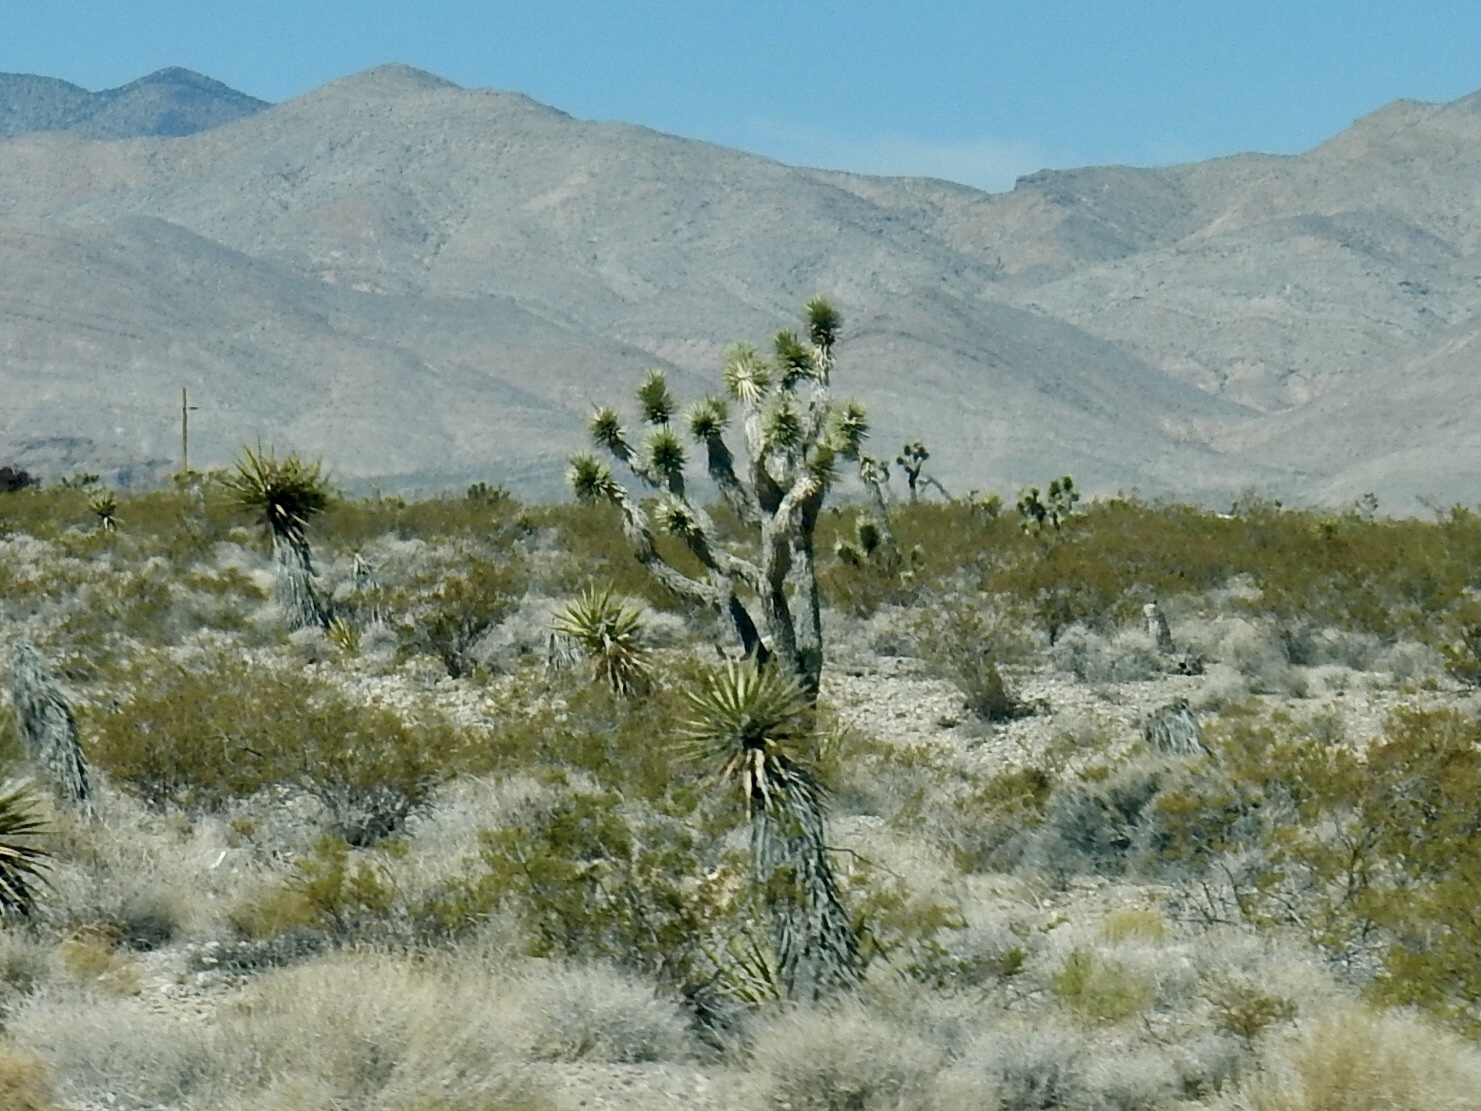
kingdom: Plantae
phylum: Tracheophyta
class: Liliopsida
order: Asparagales
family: Asparagaceae
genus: Yucca
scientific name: Yucca brevifolia
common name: Joshua tree
